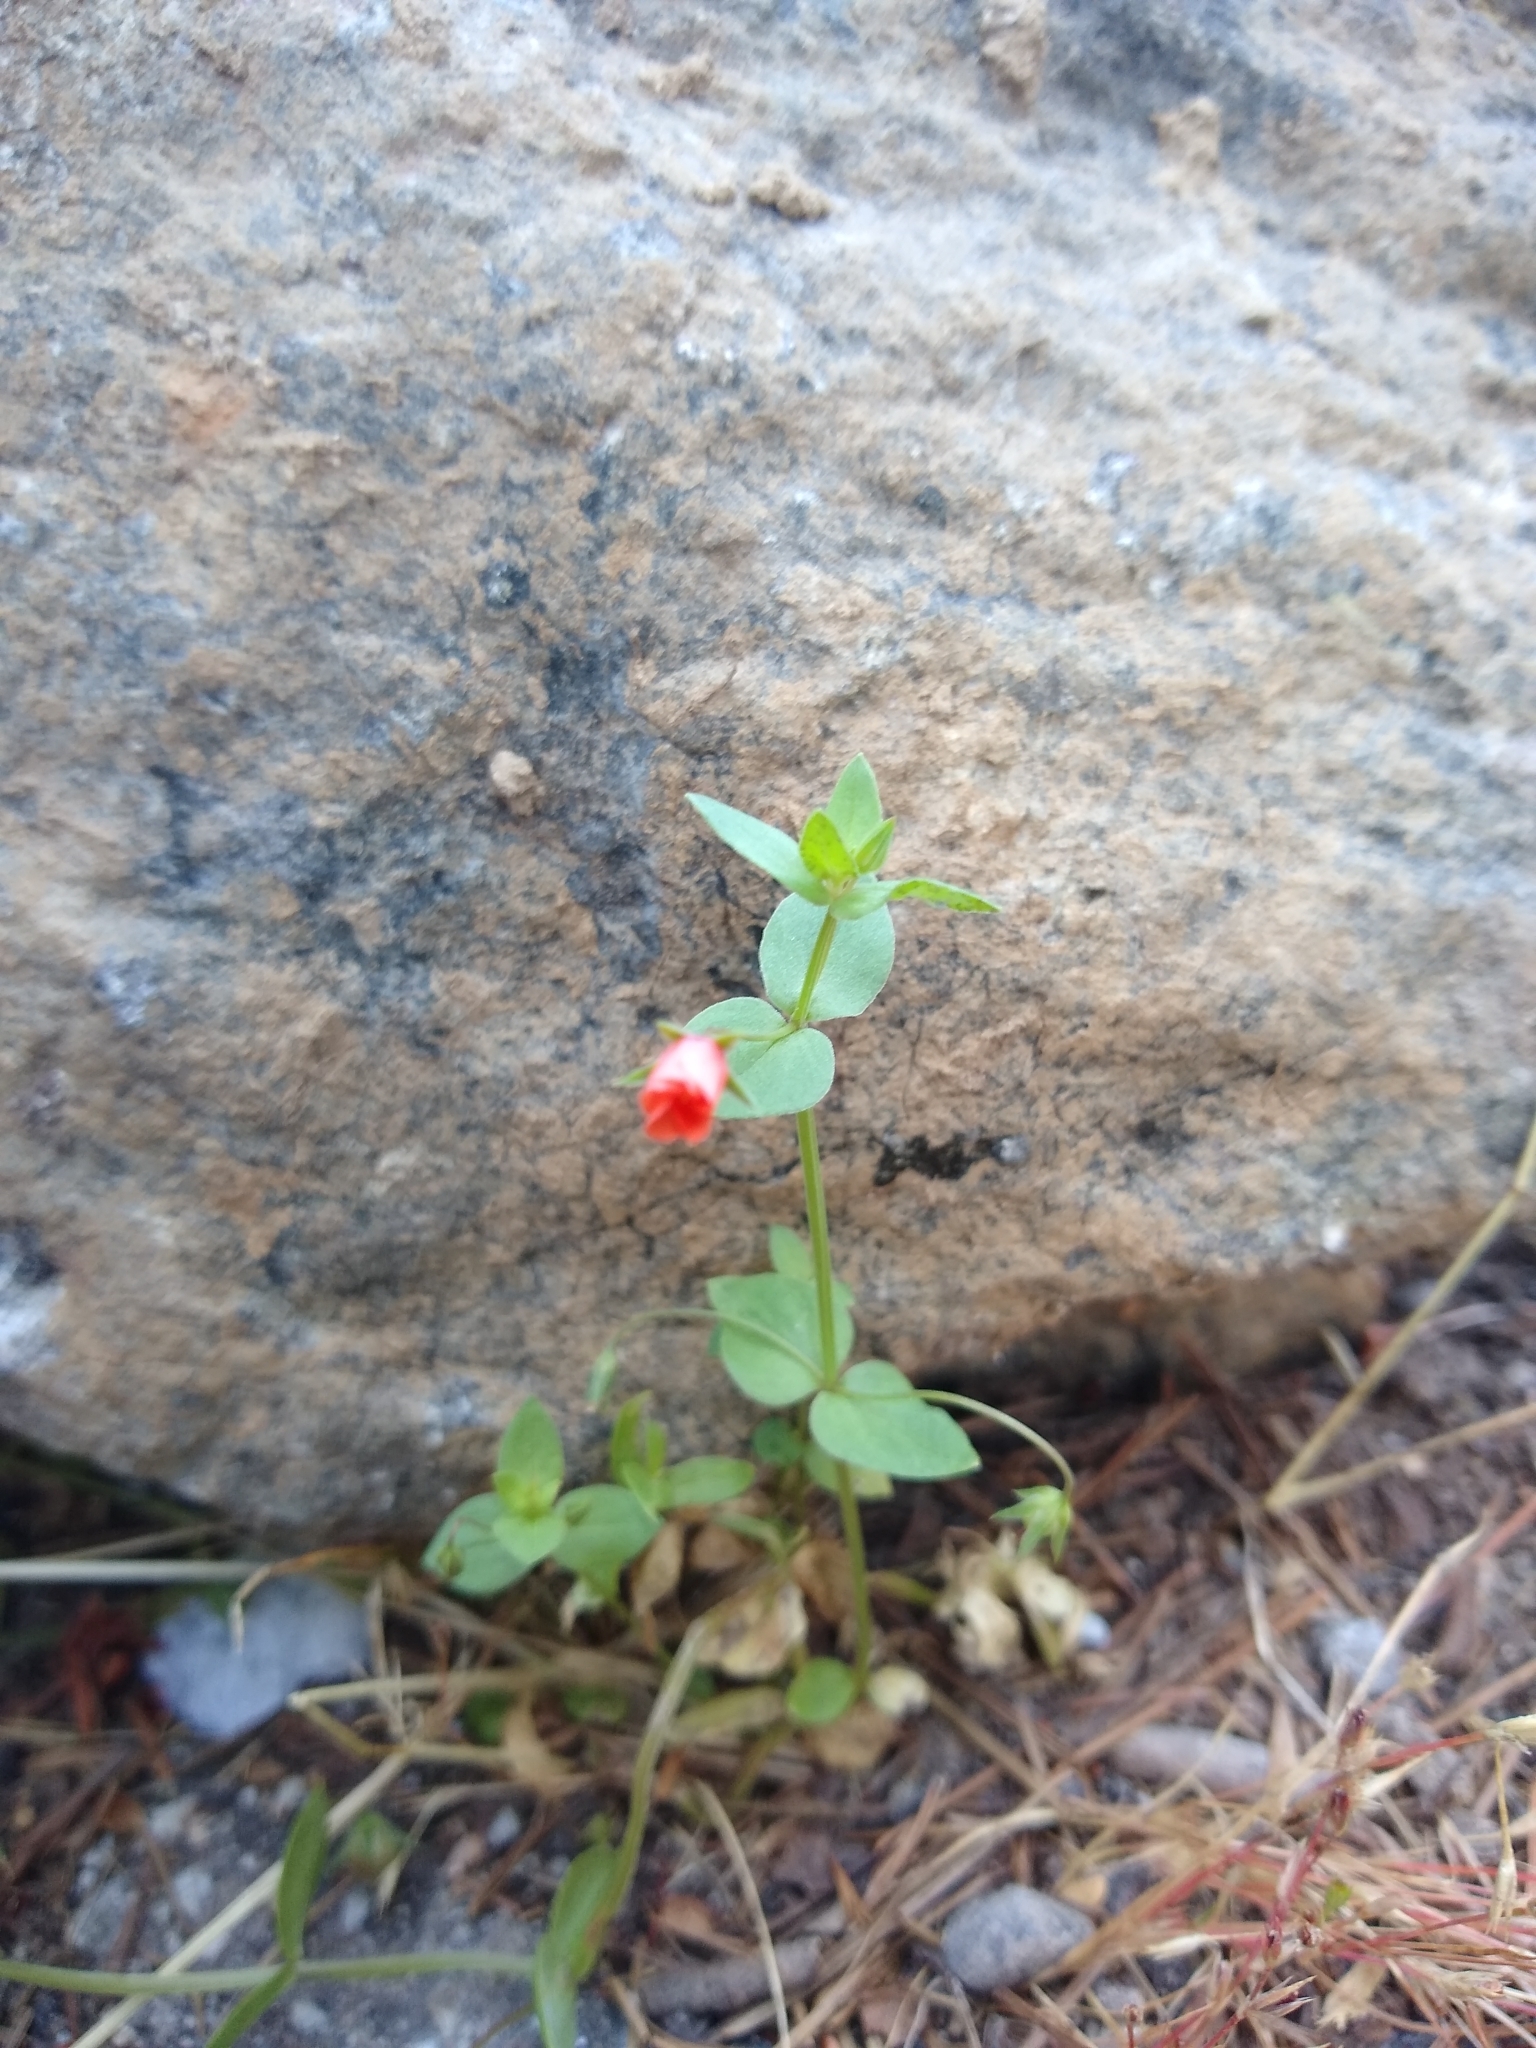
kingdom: Plantae
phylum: Tracheophyta
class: Magnoliopsida
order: Ericales
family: Primulaceae
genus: Lysimachia
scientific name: Lysimachia arvensis
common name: Scarlet pimpernel
